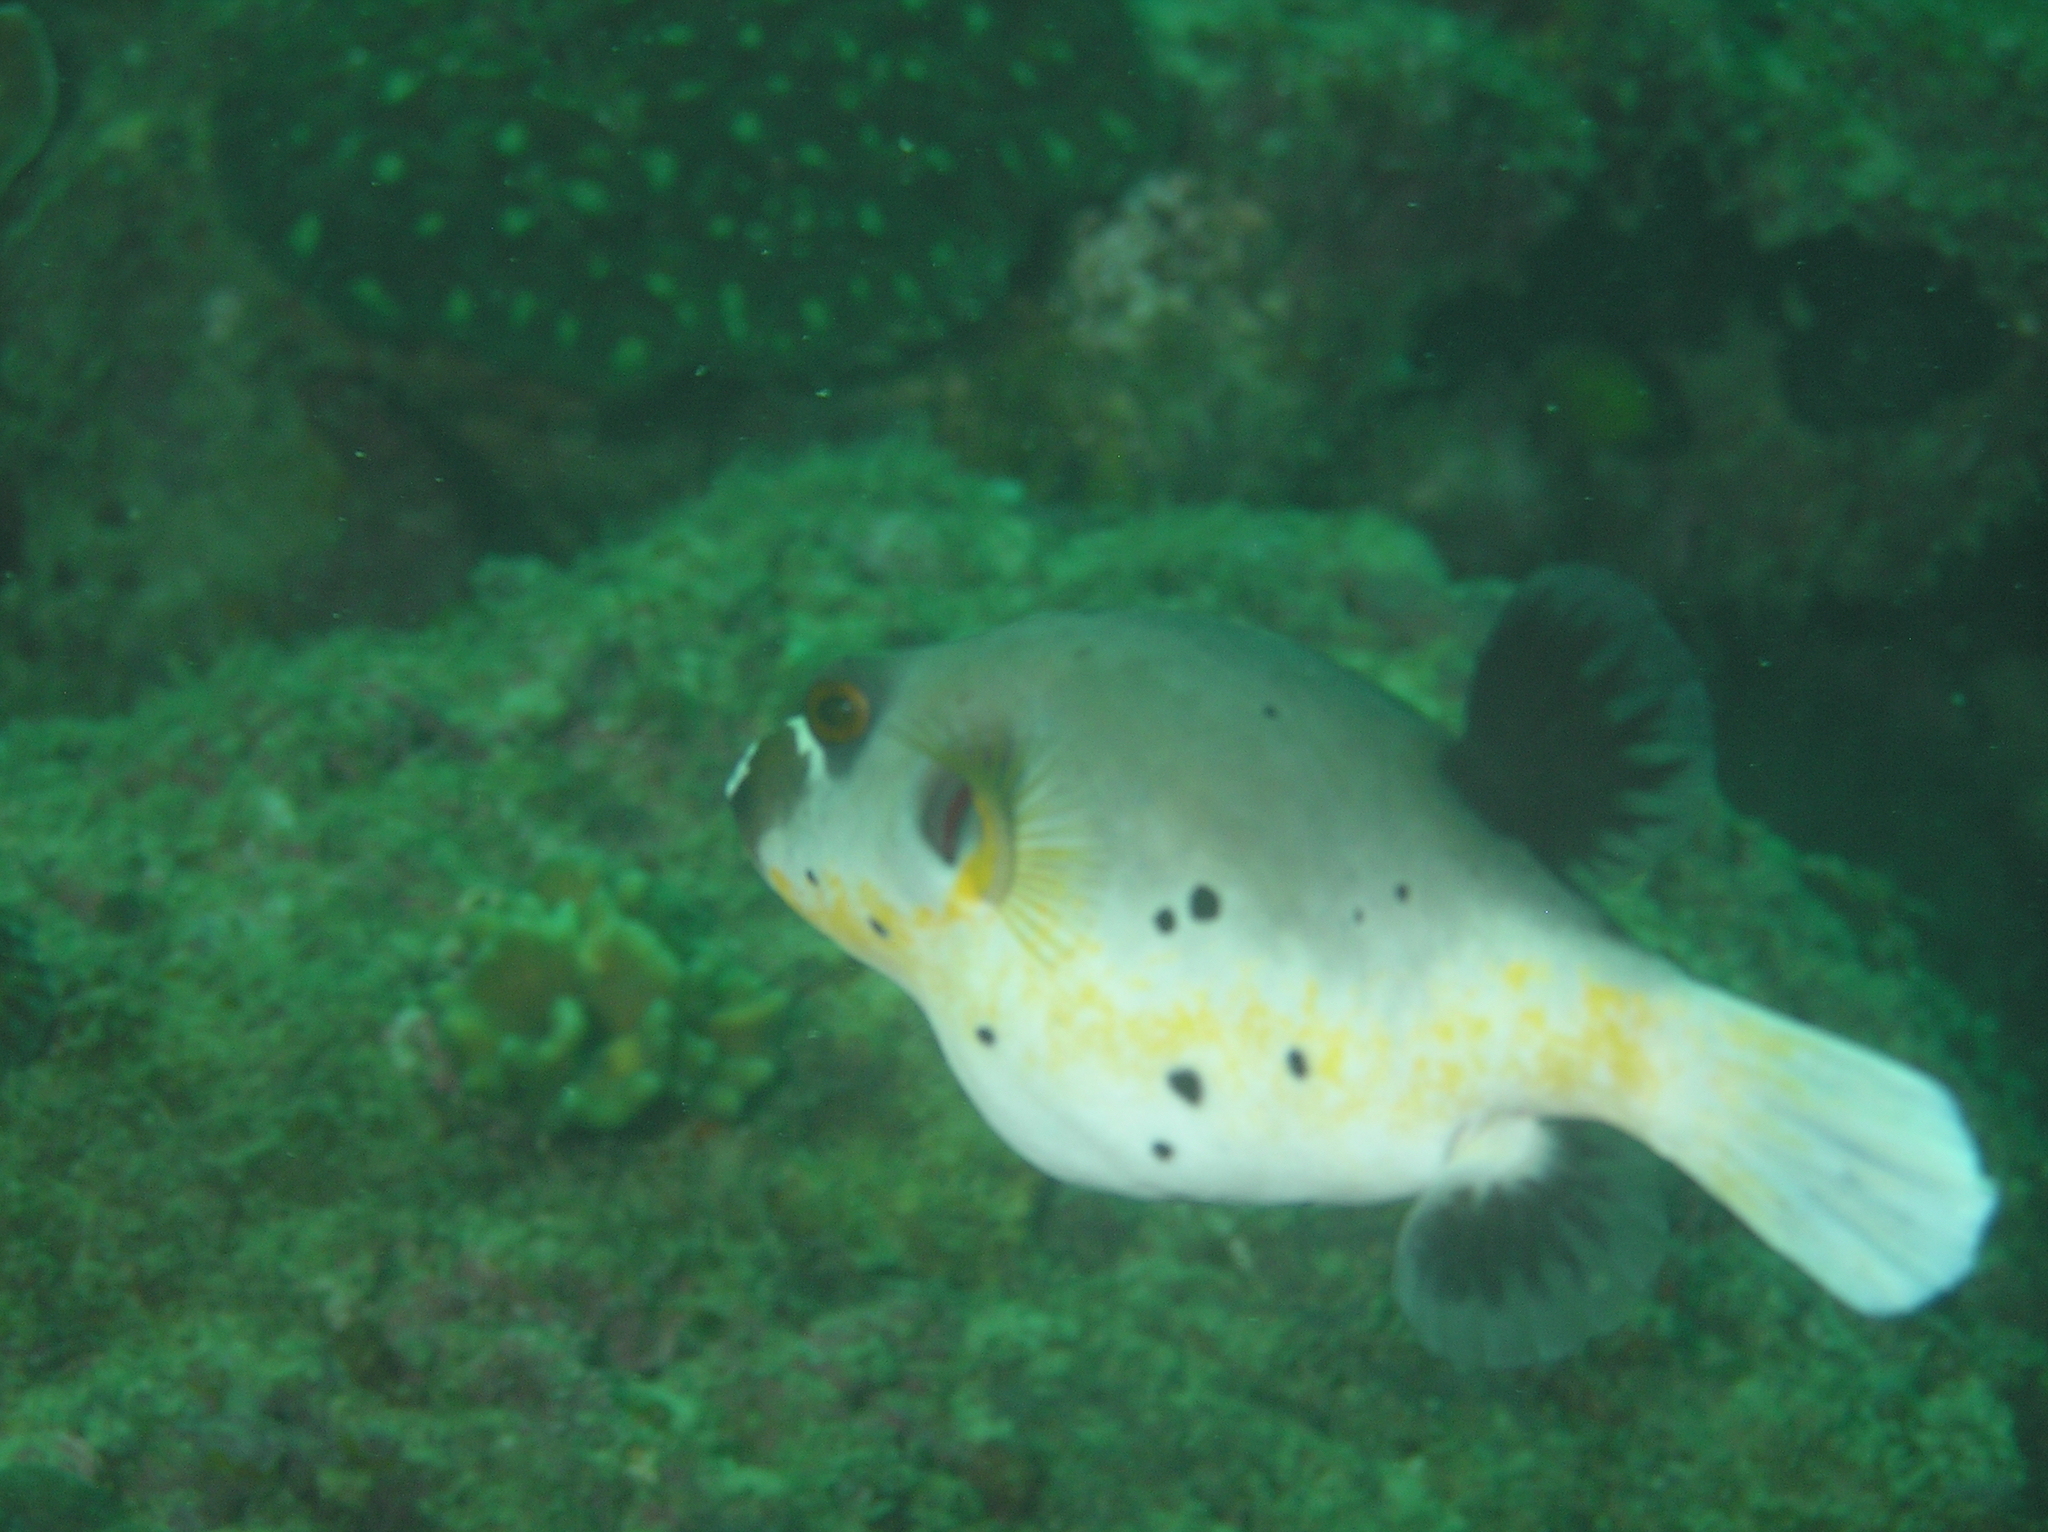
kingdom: Animalia
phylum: Chordata
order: Tetraodontiformes
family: Tetraodontidae
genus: Arothron
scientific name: Arothron nigropunctatus
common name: Black spotted blow fish
